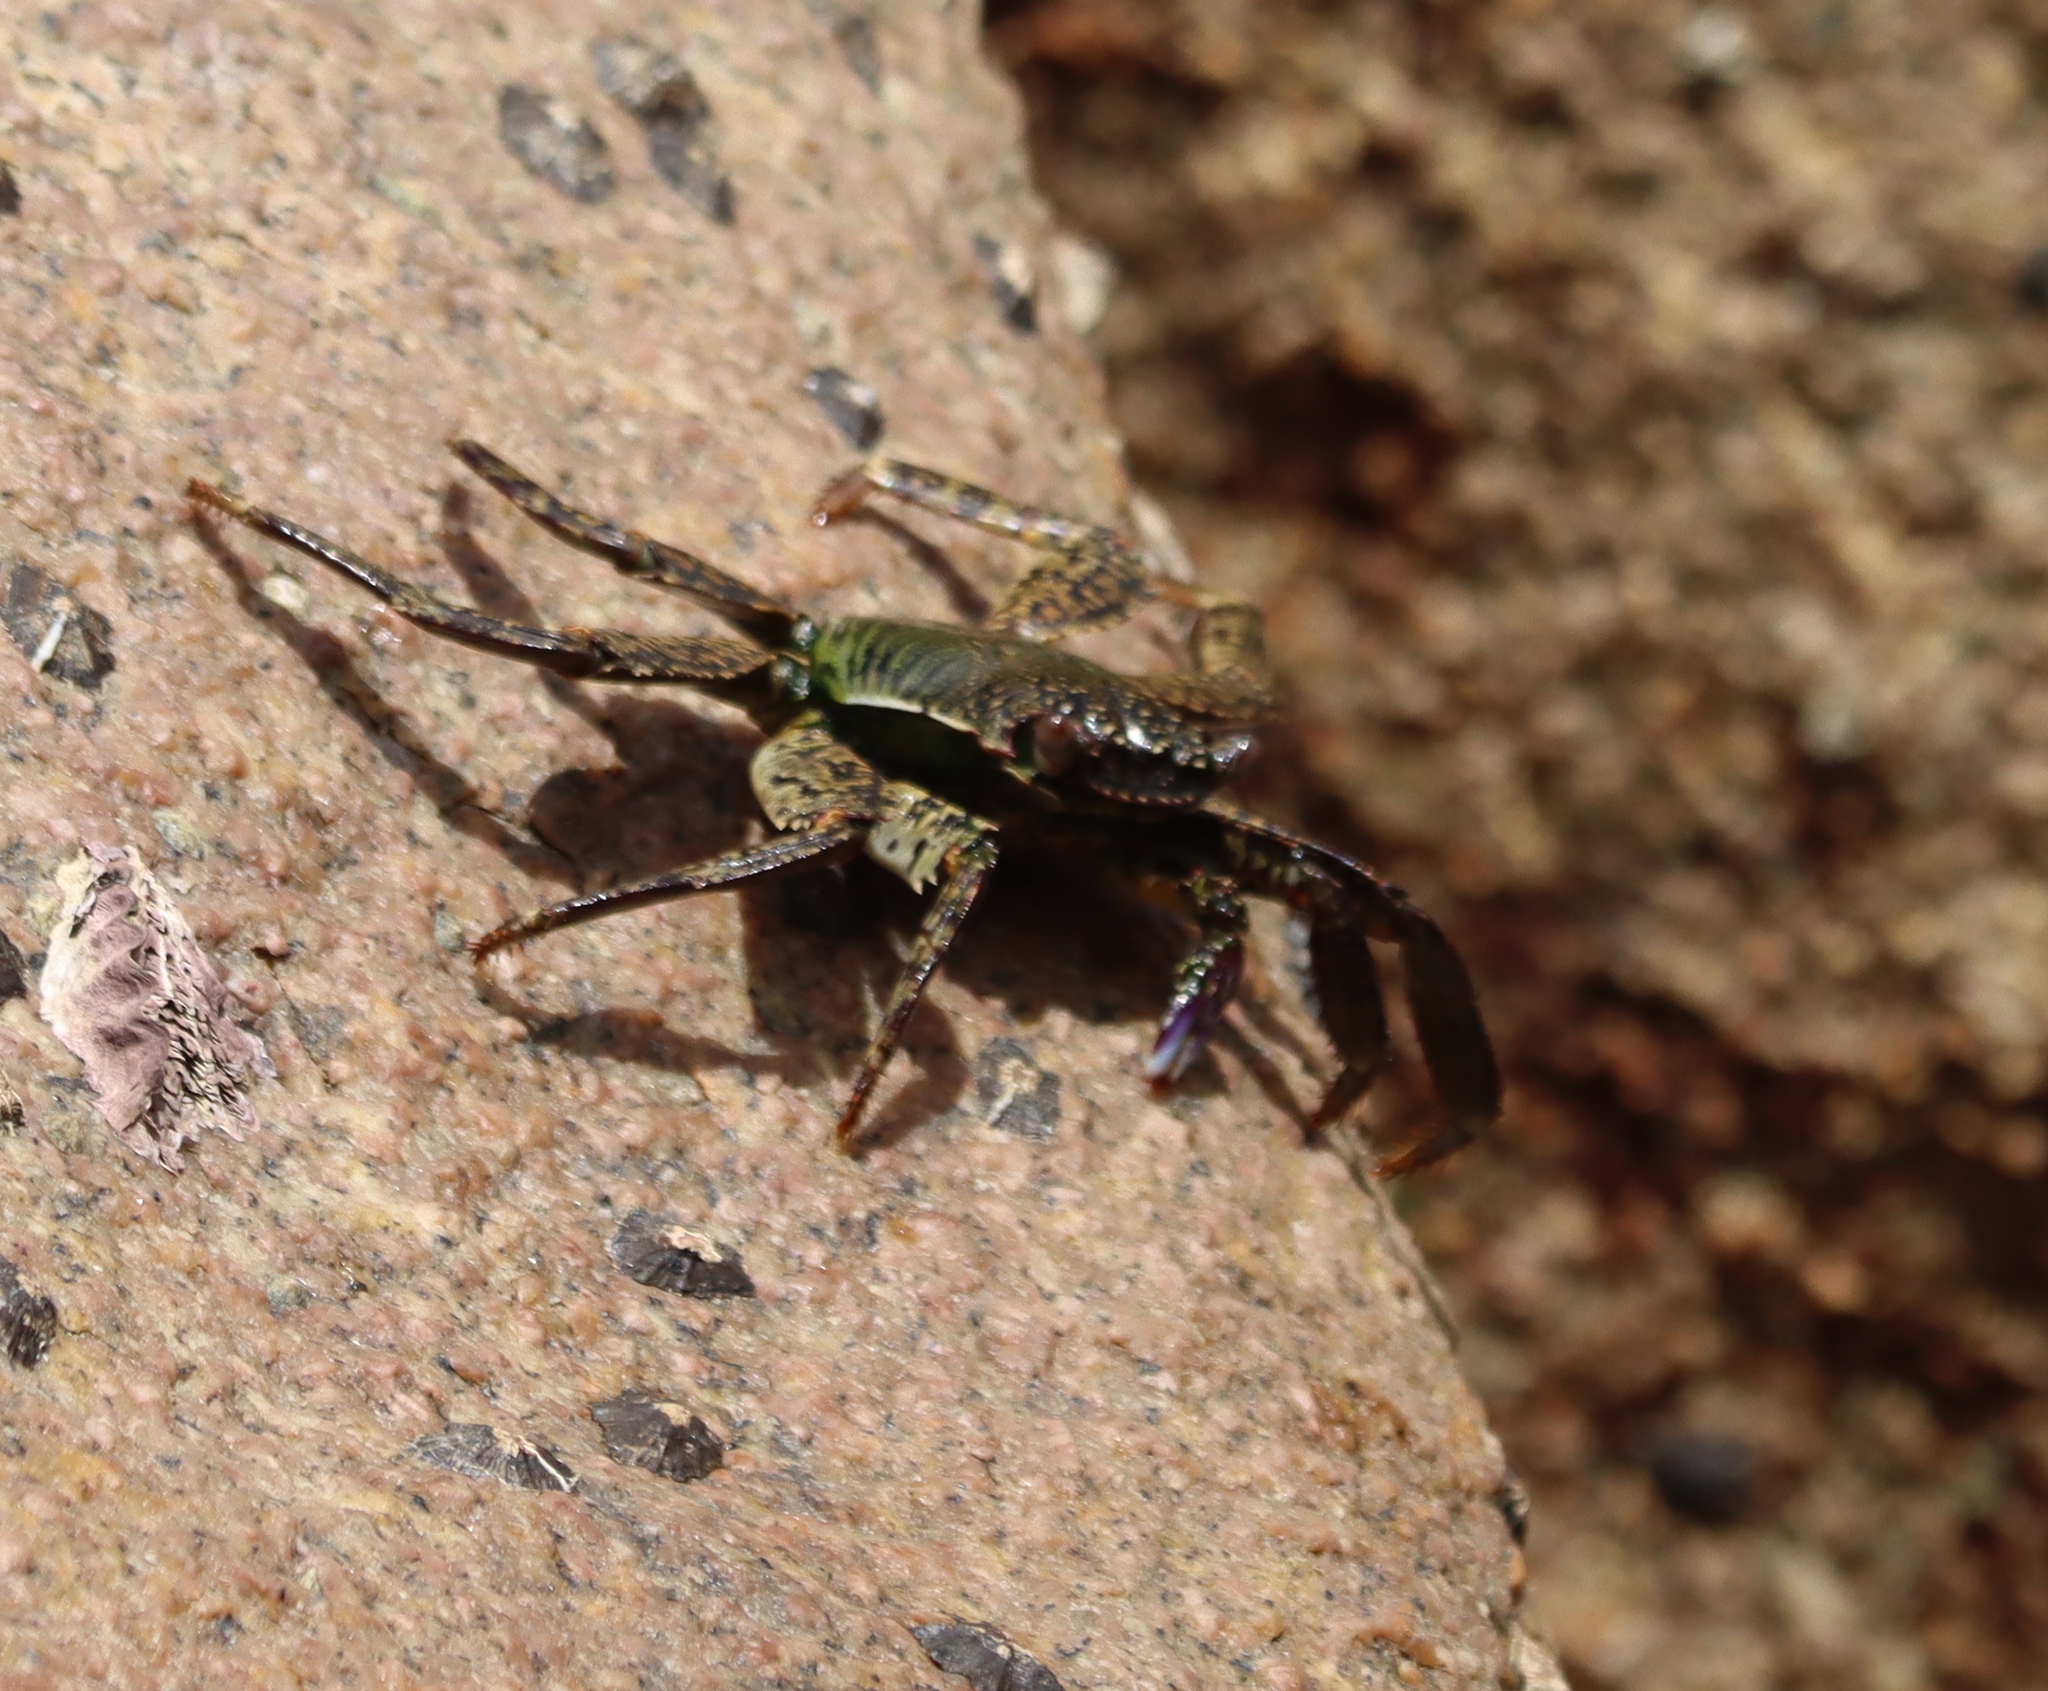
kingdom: Animalia
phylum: Arthropoda
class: Malacostraca
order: Decapoda
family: Grapsidae
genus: Grapsus
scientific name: Grapsus albolineatus
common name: Mottled lightfoot crab
